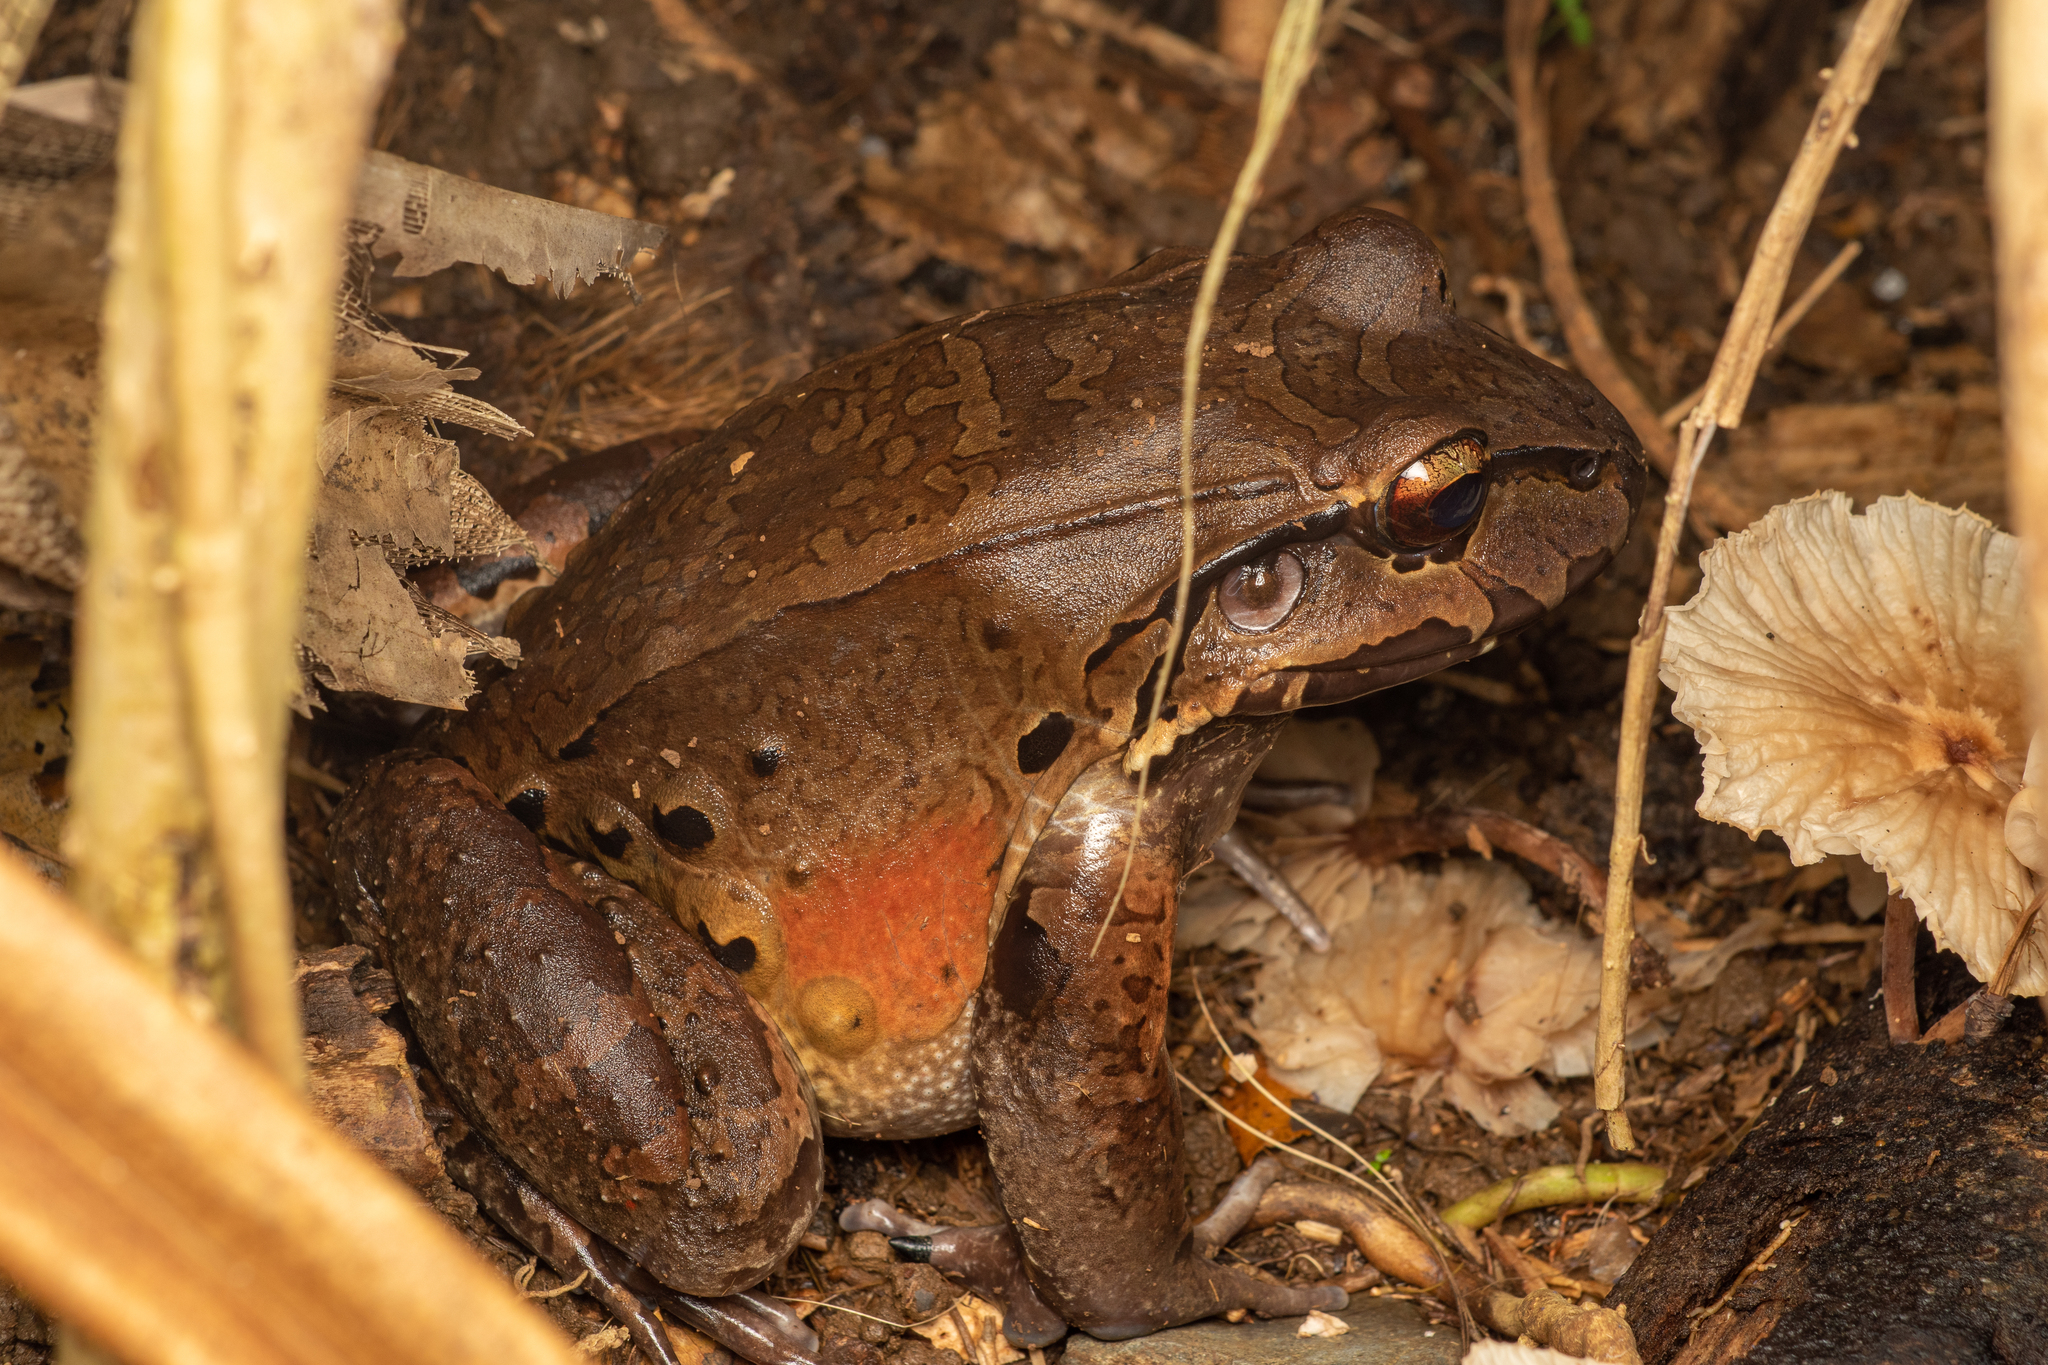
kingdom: Animalia
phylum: Chordata
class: Amphibia
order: Anura
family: Leptodactylidae
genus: Leptodactylus
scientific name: Leptodactylus savagei
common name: Savage's thin-toed frog
